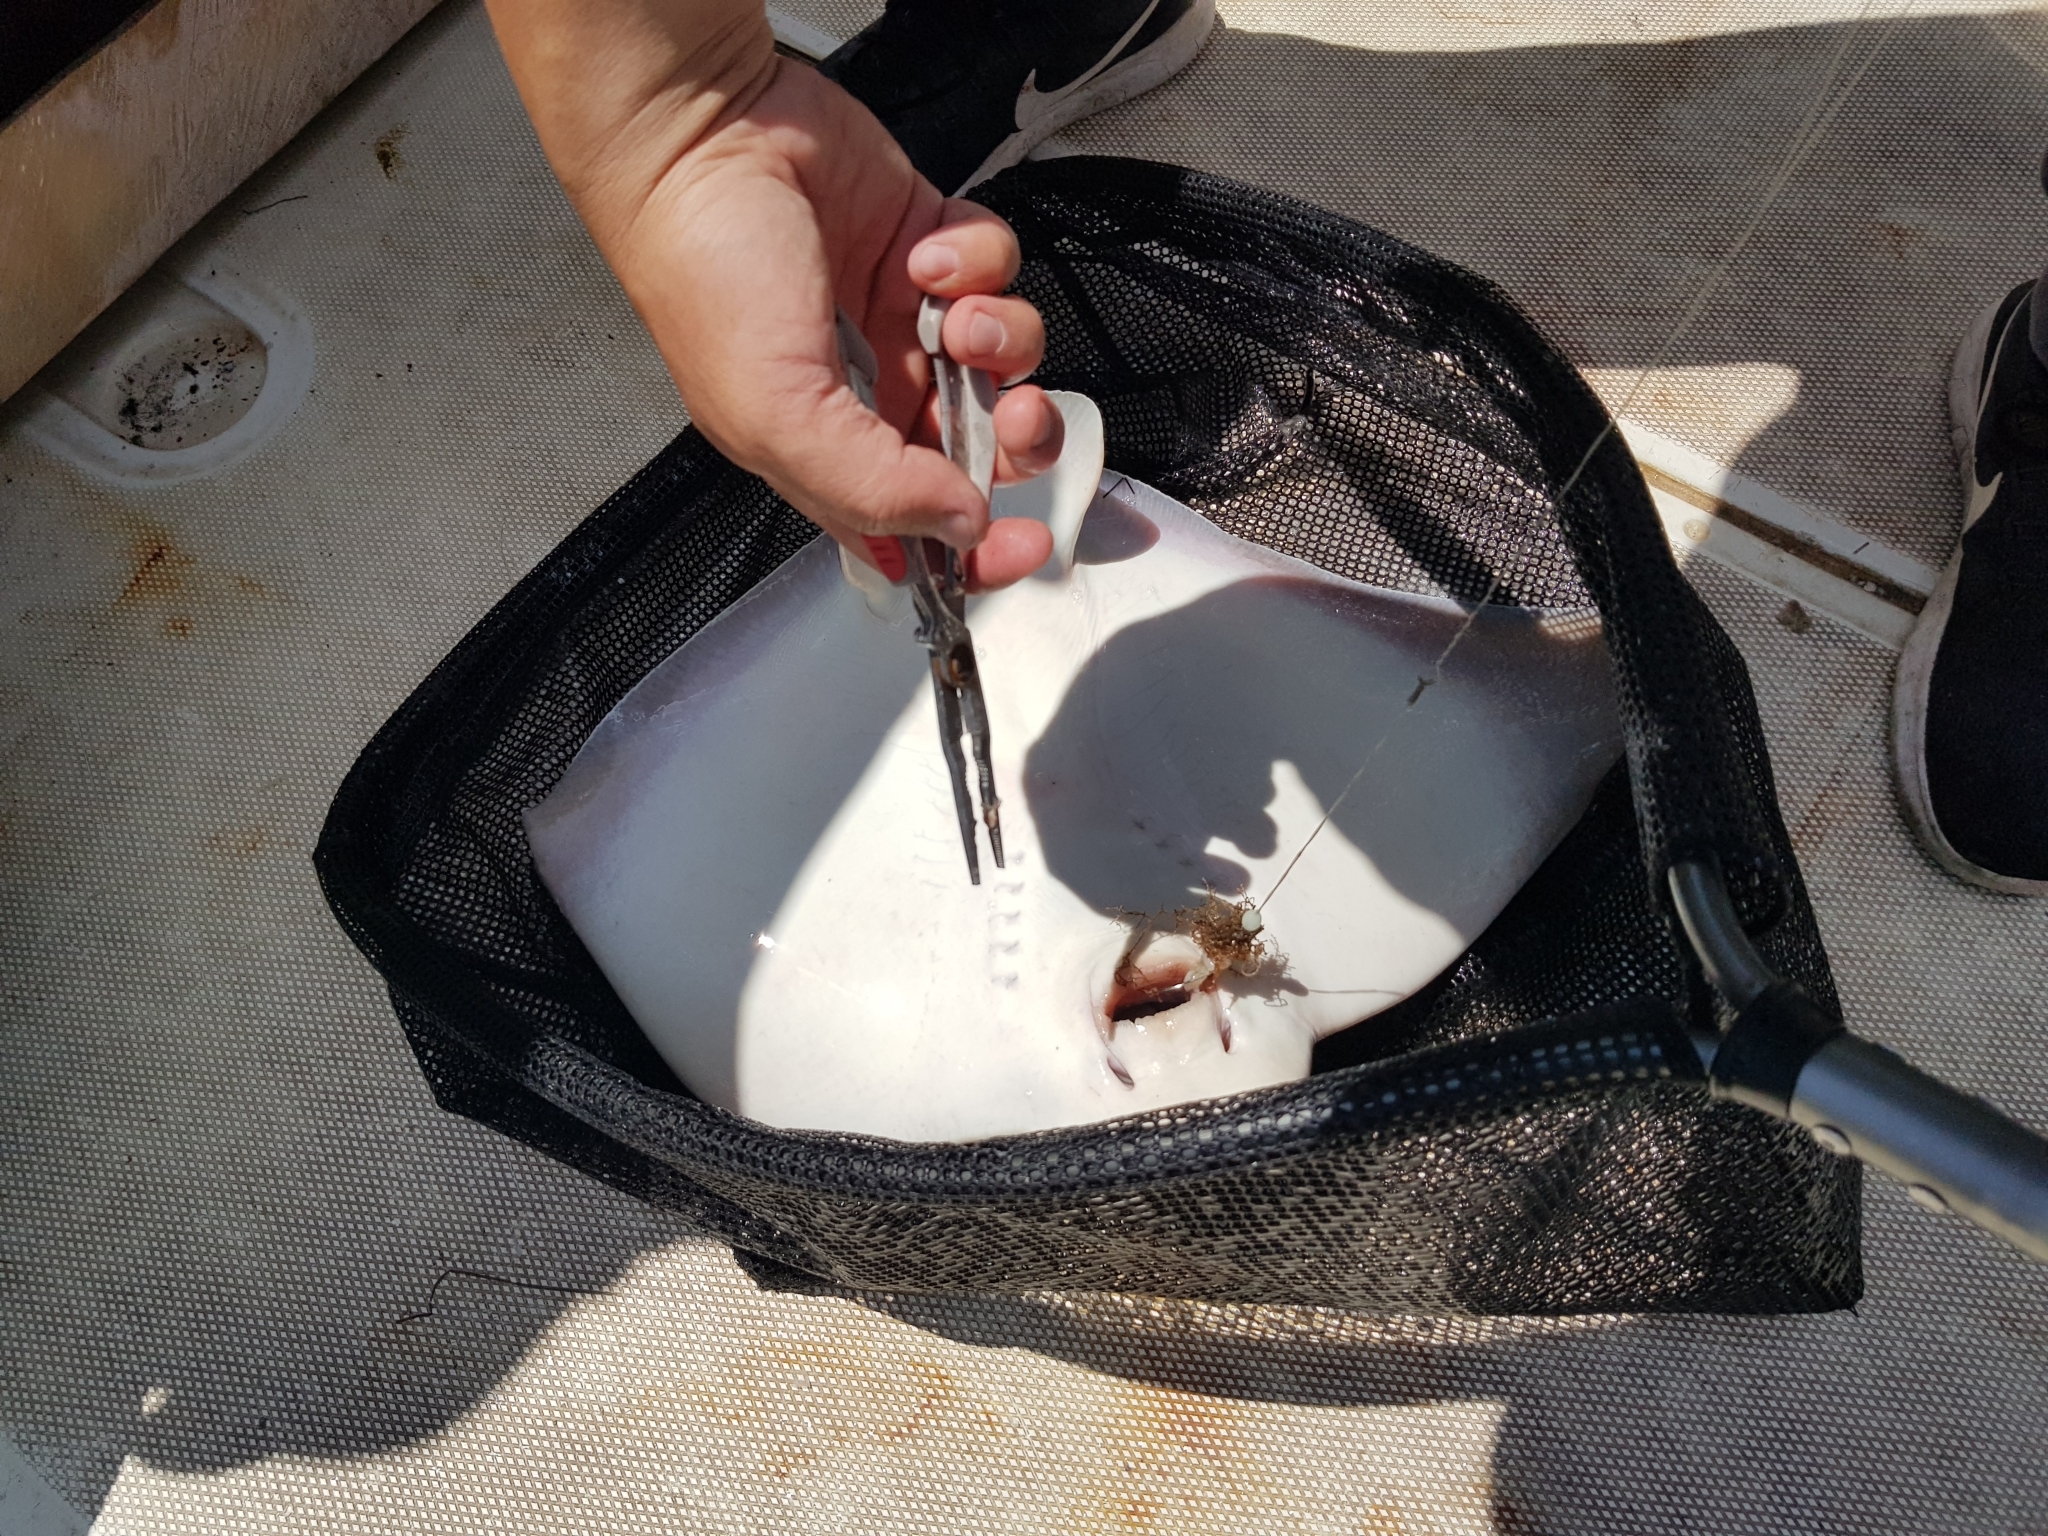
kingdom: Animalia
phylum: Chordata
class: Elasmobranchii
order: Myliobatiformes
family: Myliobatidae
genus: Myliobatis
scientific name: Myliobatis tenuicaudatus
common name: Eagle ray
